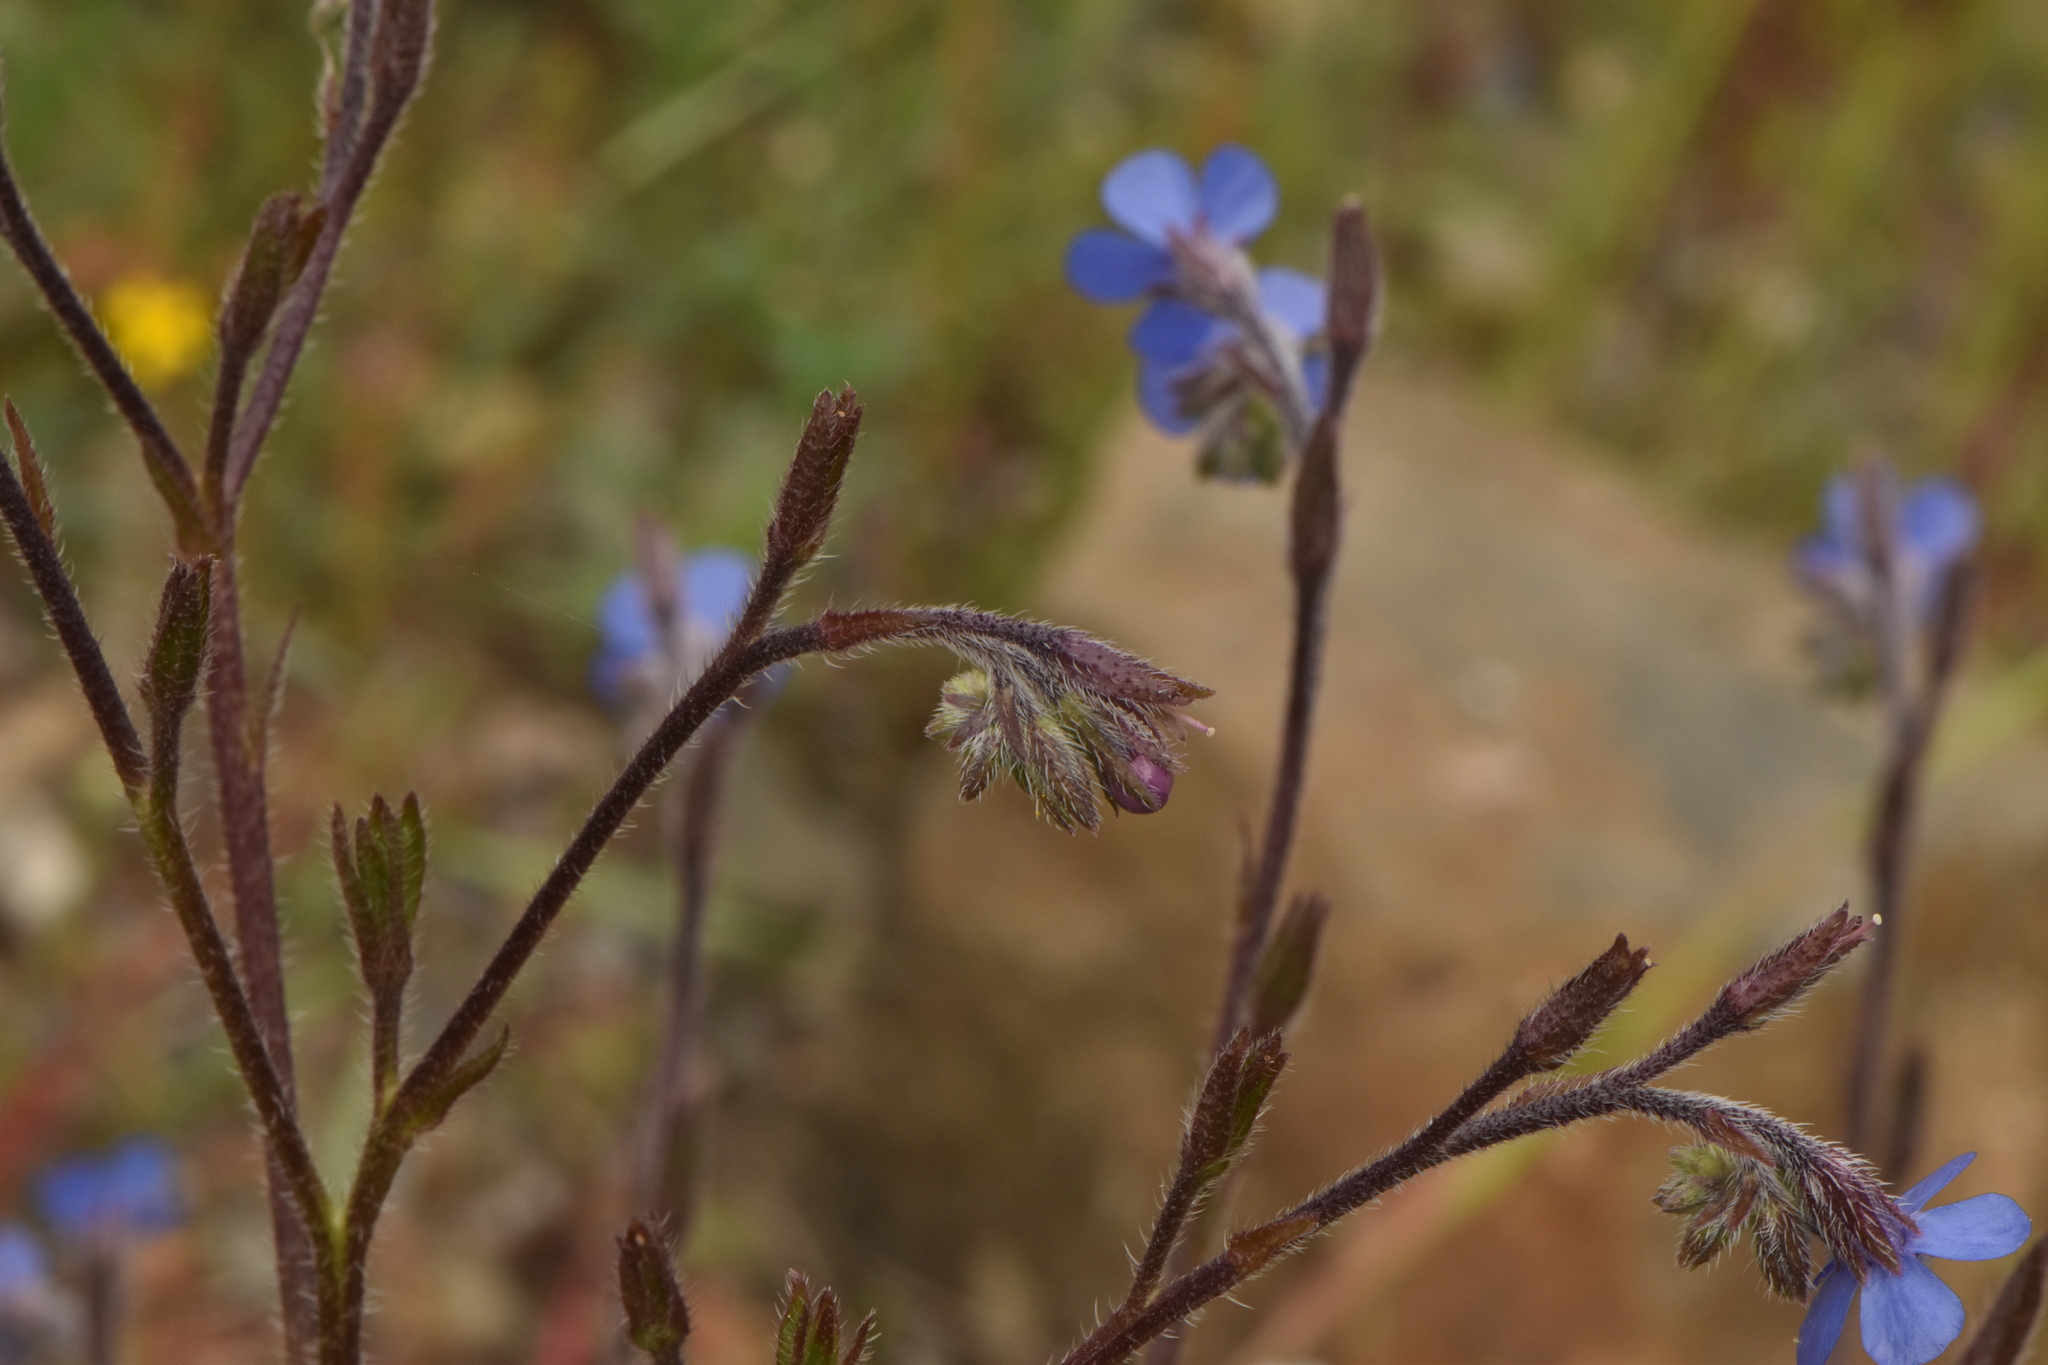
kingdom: Plantae
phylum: Tracheophyta
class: Magnoliopsida
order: Boraginales
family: Boraginaceae
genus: Anchusa
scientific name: Anchusa azurea
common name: Garden anchusa
